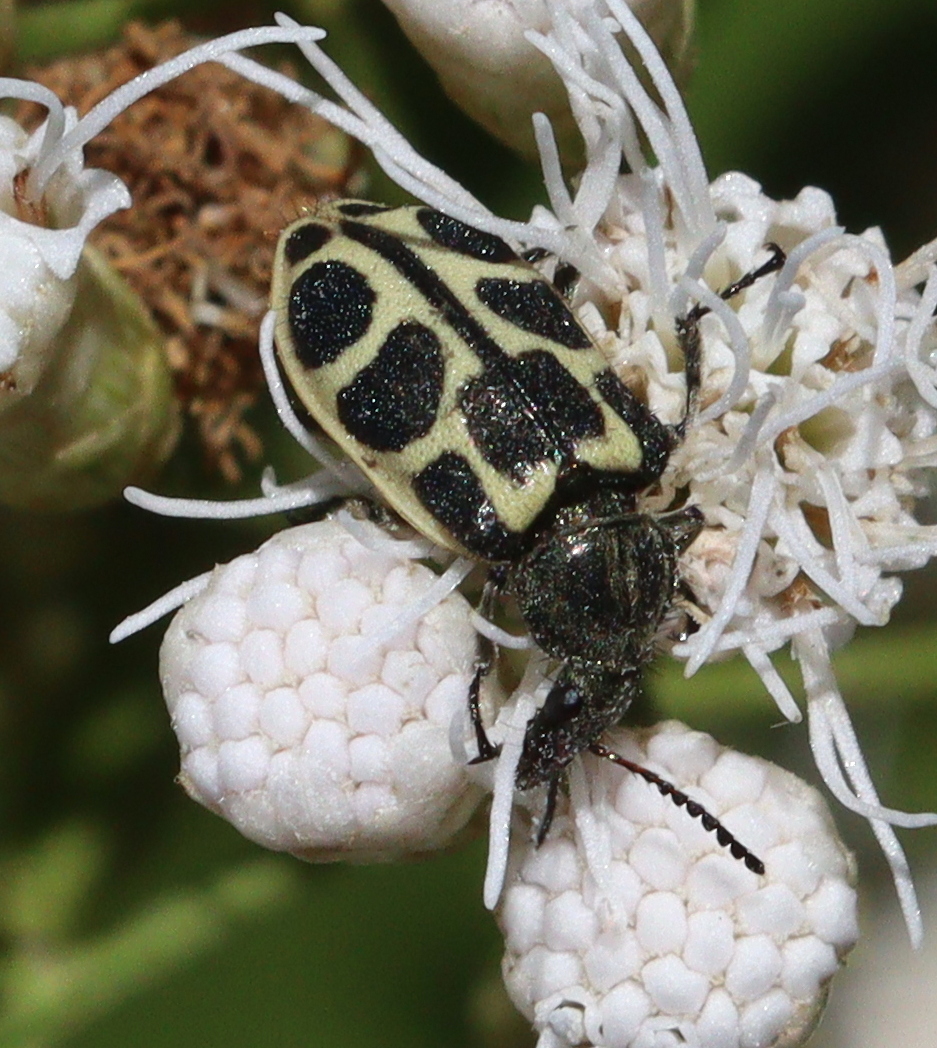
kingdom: Animalia
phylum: Arthropoda
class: Insecta
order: Coleoptera
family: Melyridae
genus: Astylus
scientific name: Astylus
